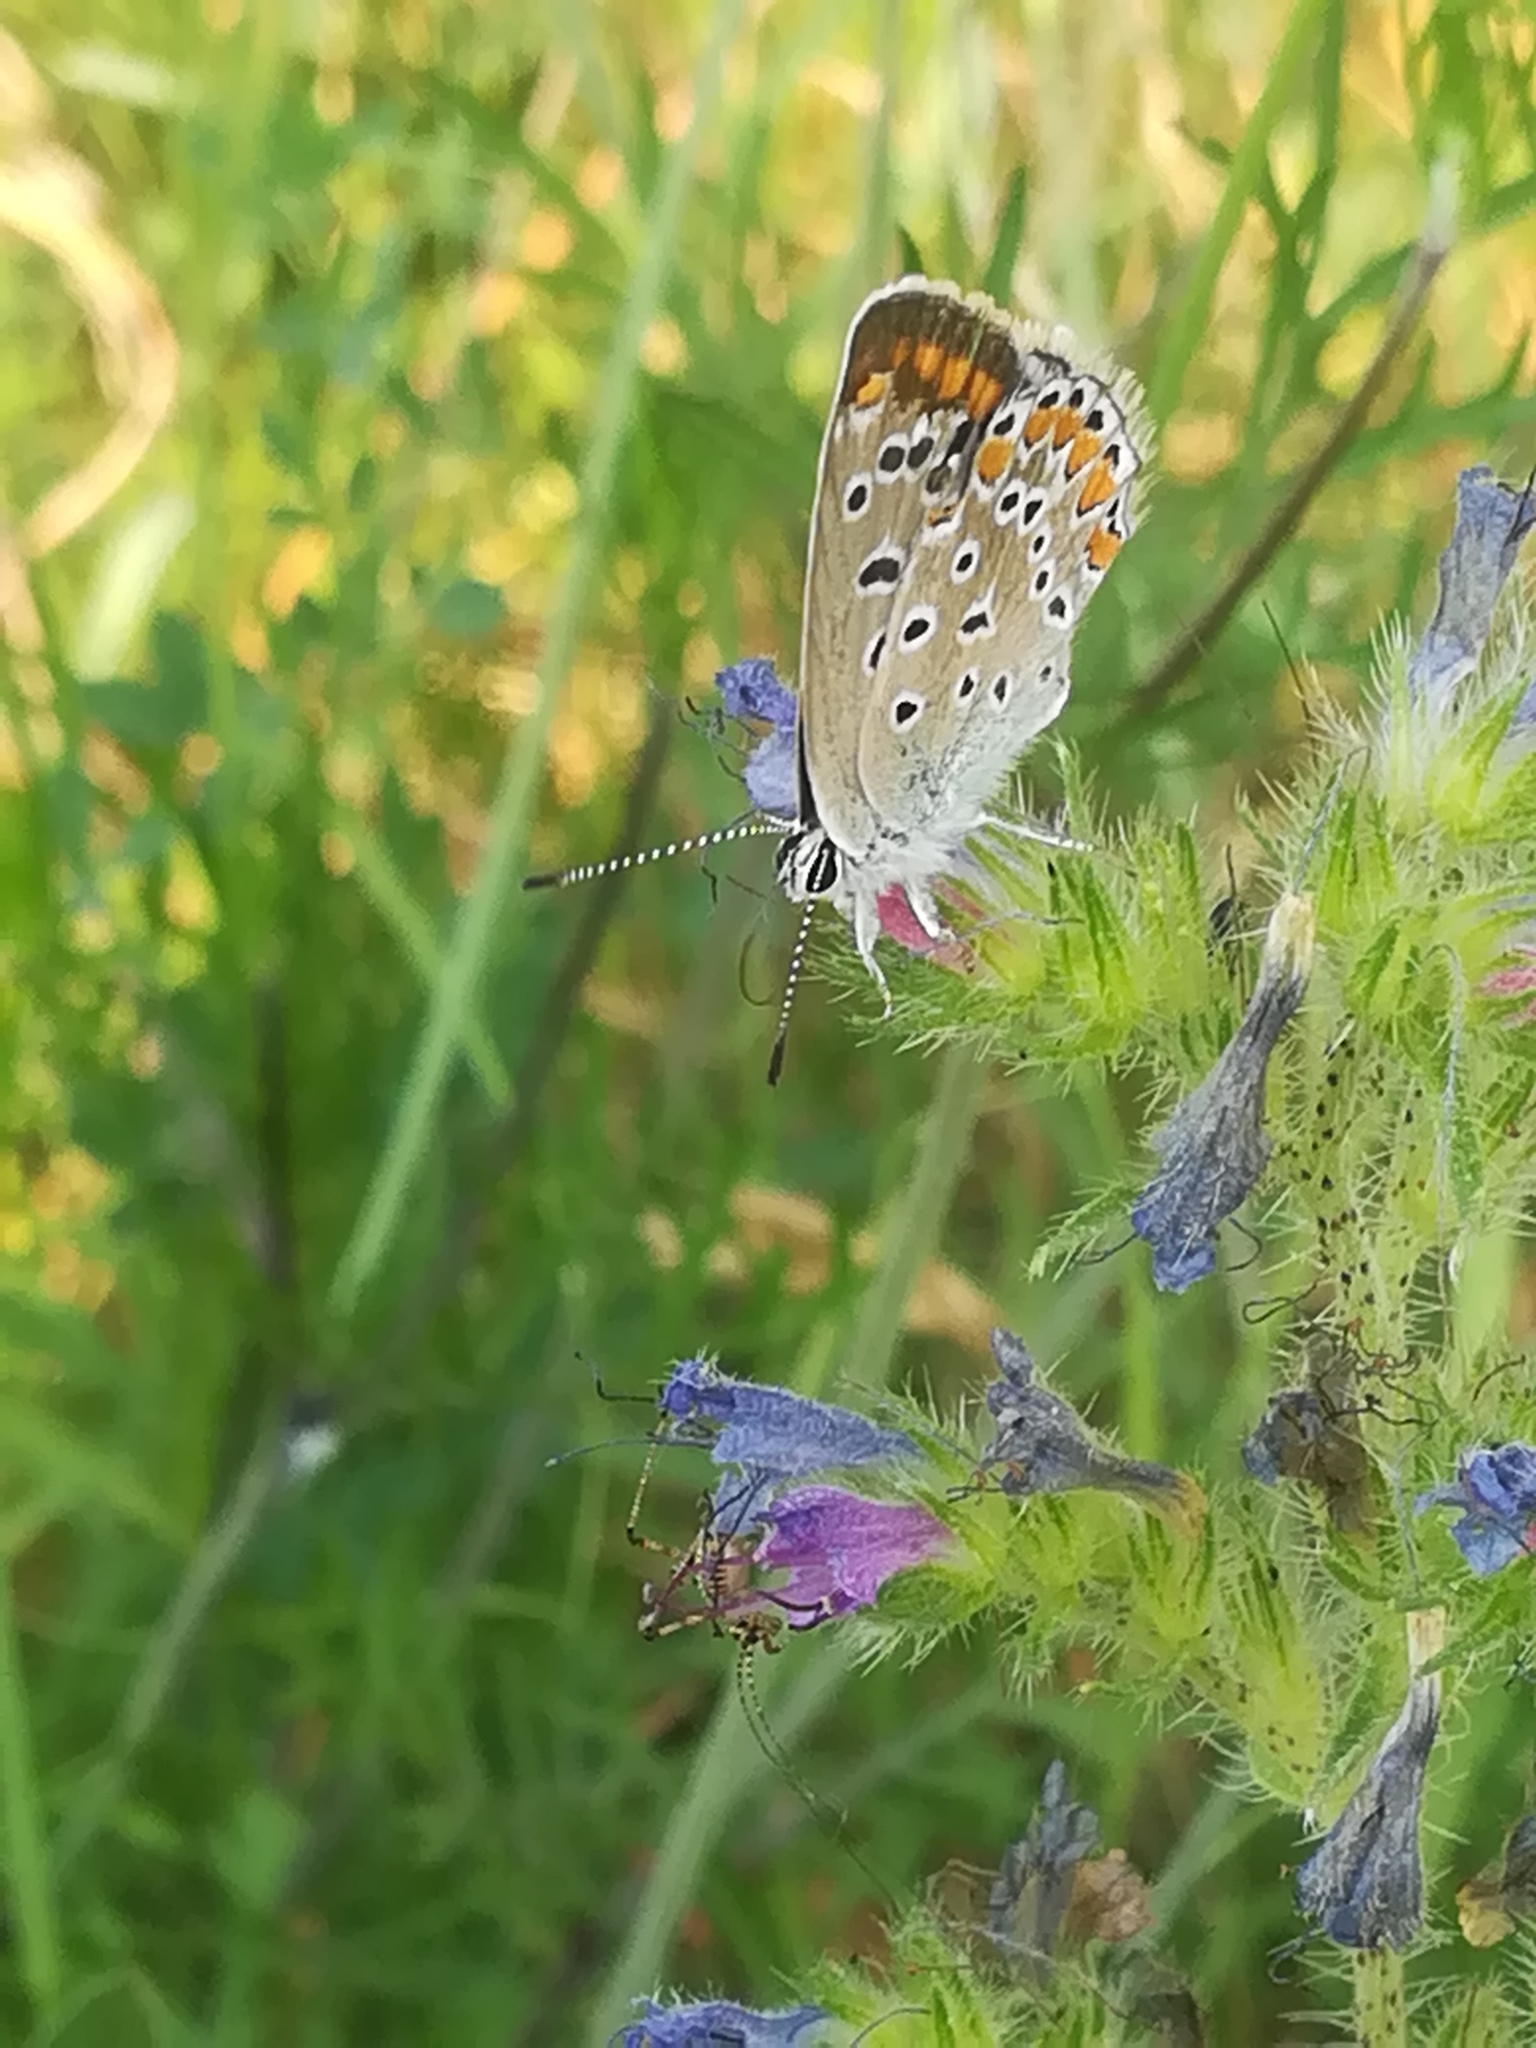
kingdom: Animalia
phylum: Arthropoda
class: Insecta
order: Lepidoptera
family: Lycaenidae
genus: Polyommatus
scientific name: Polyommatus icarus
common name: Common blue
